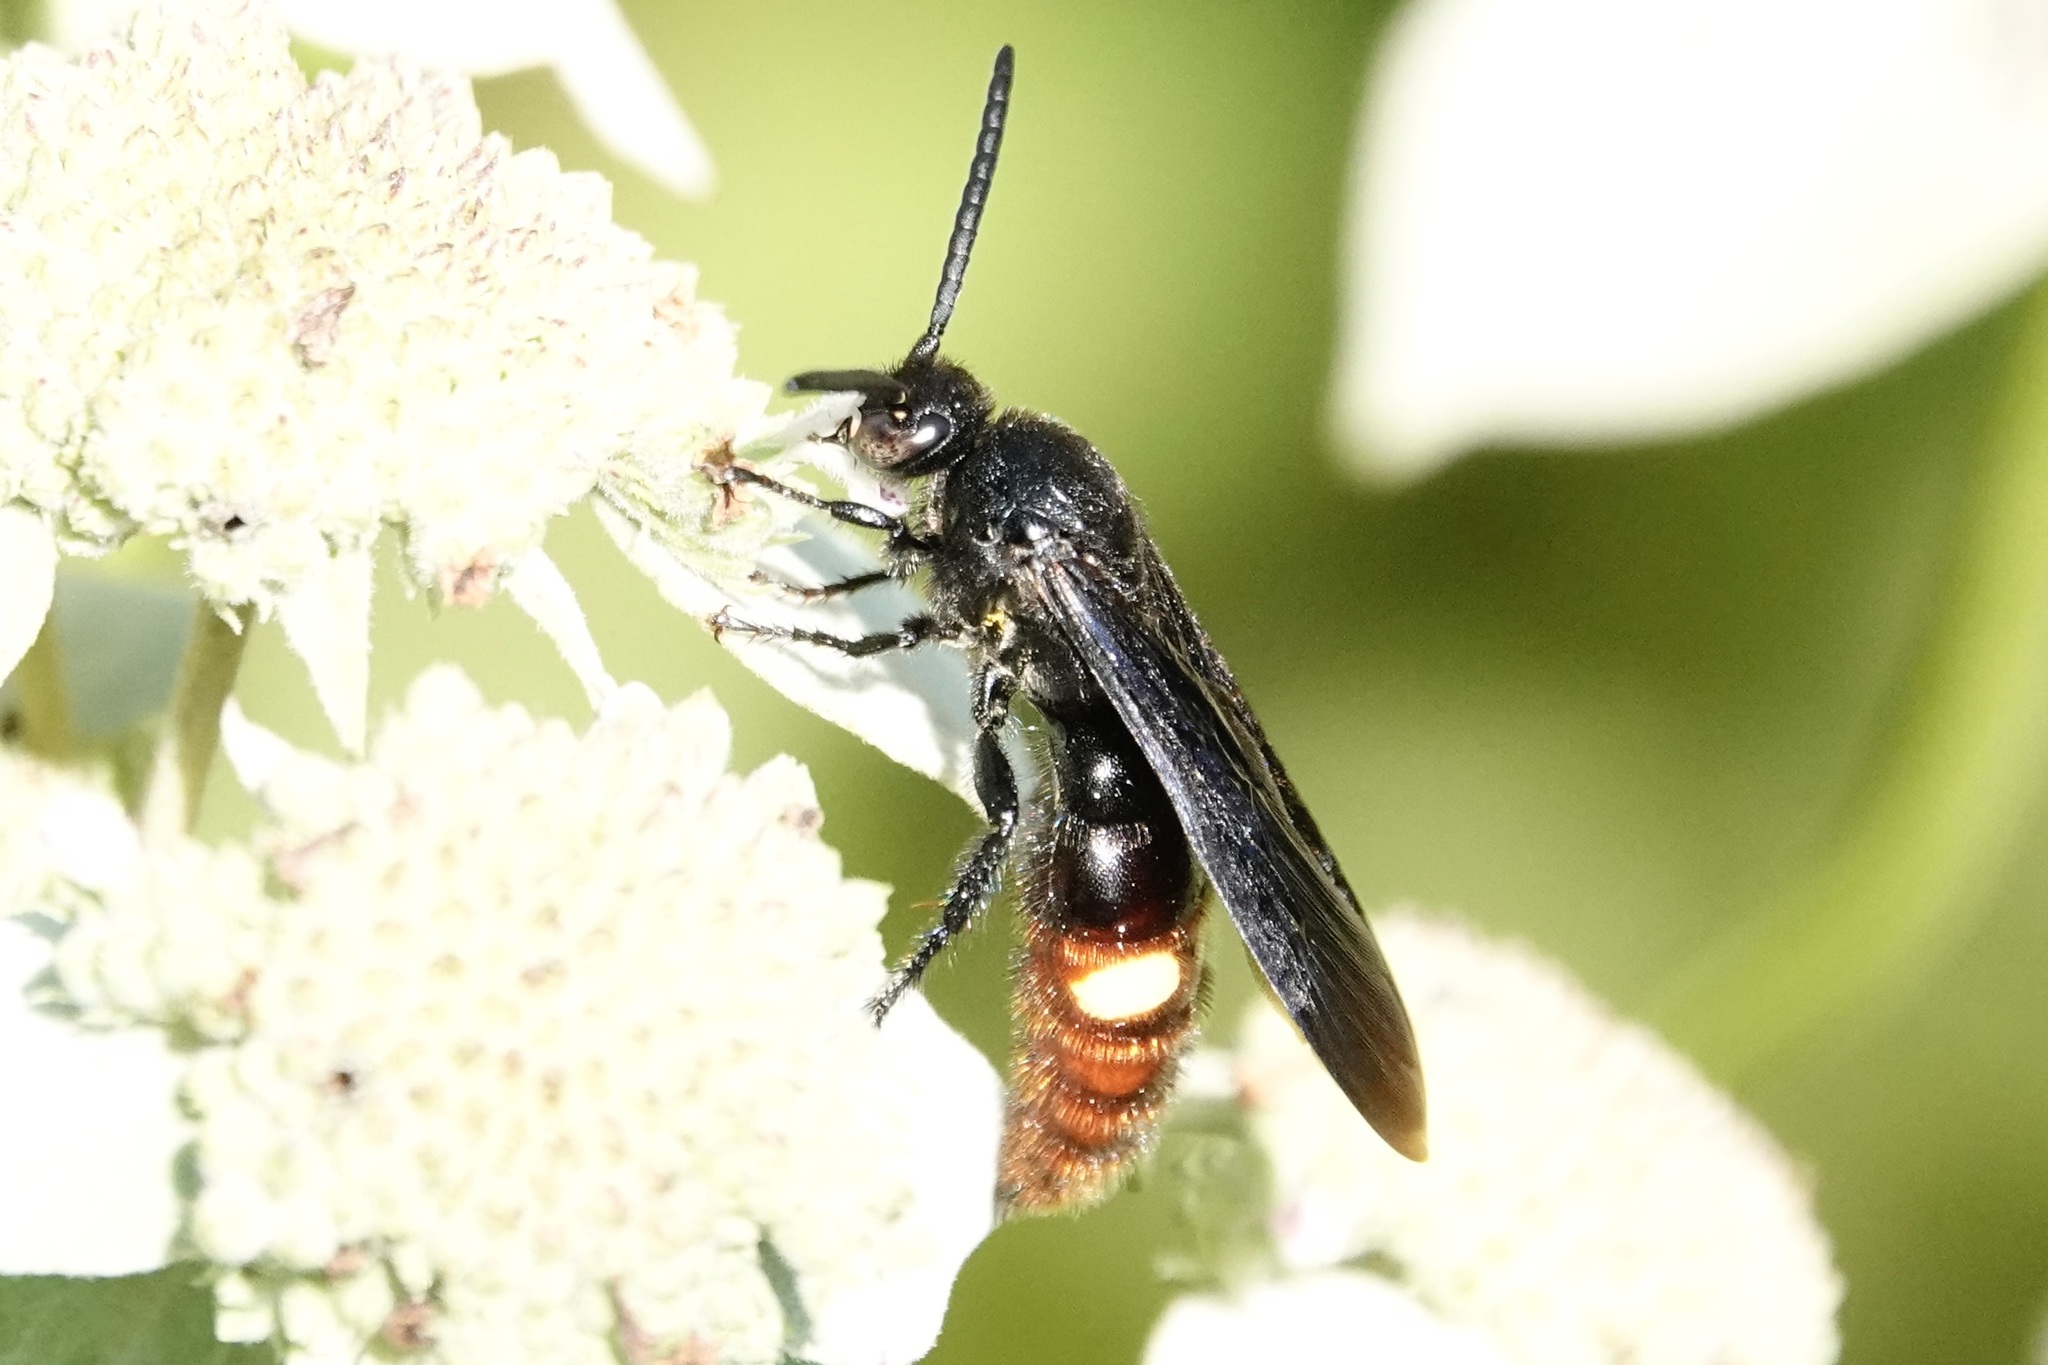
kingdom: Animalia
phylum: Arthropoda
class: Insecta
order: Hymenoptera
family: Scoliidae
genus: Scolia
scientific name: Scolia dubia
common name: Blue-winged scoliid wasp
